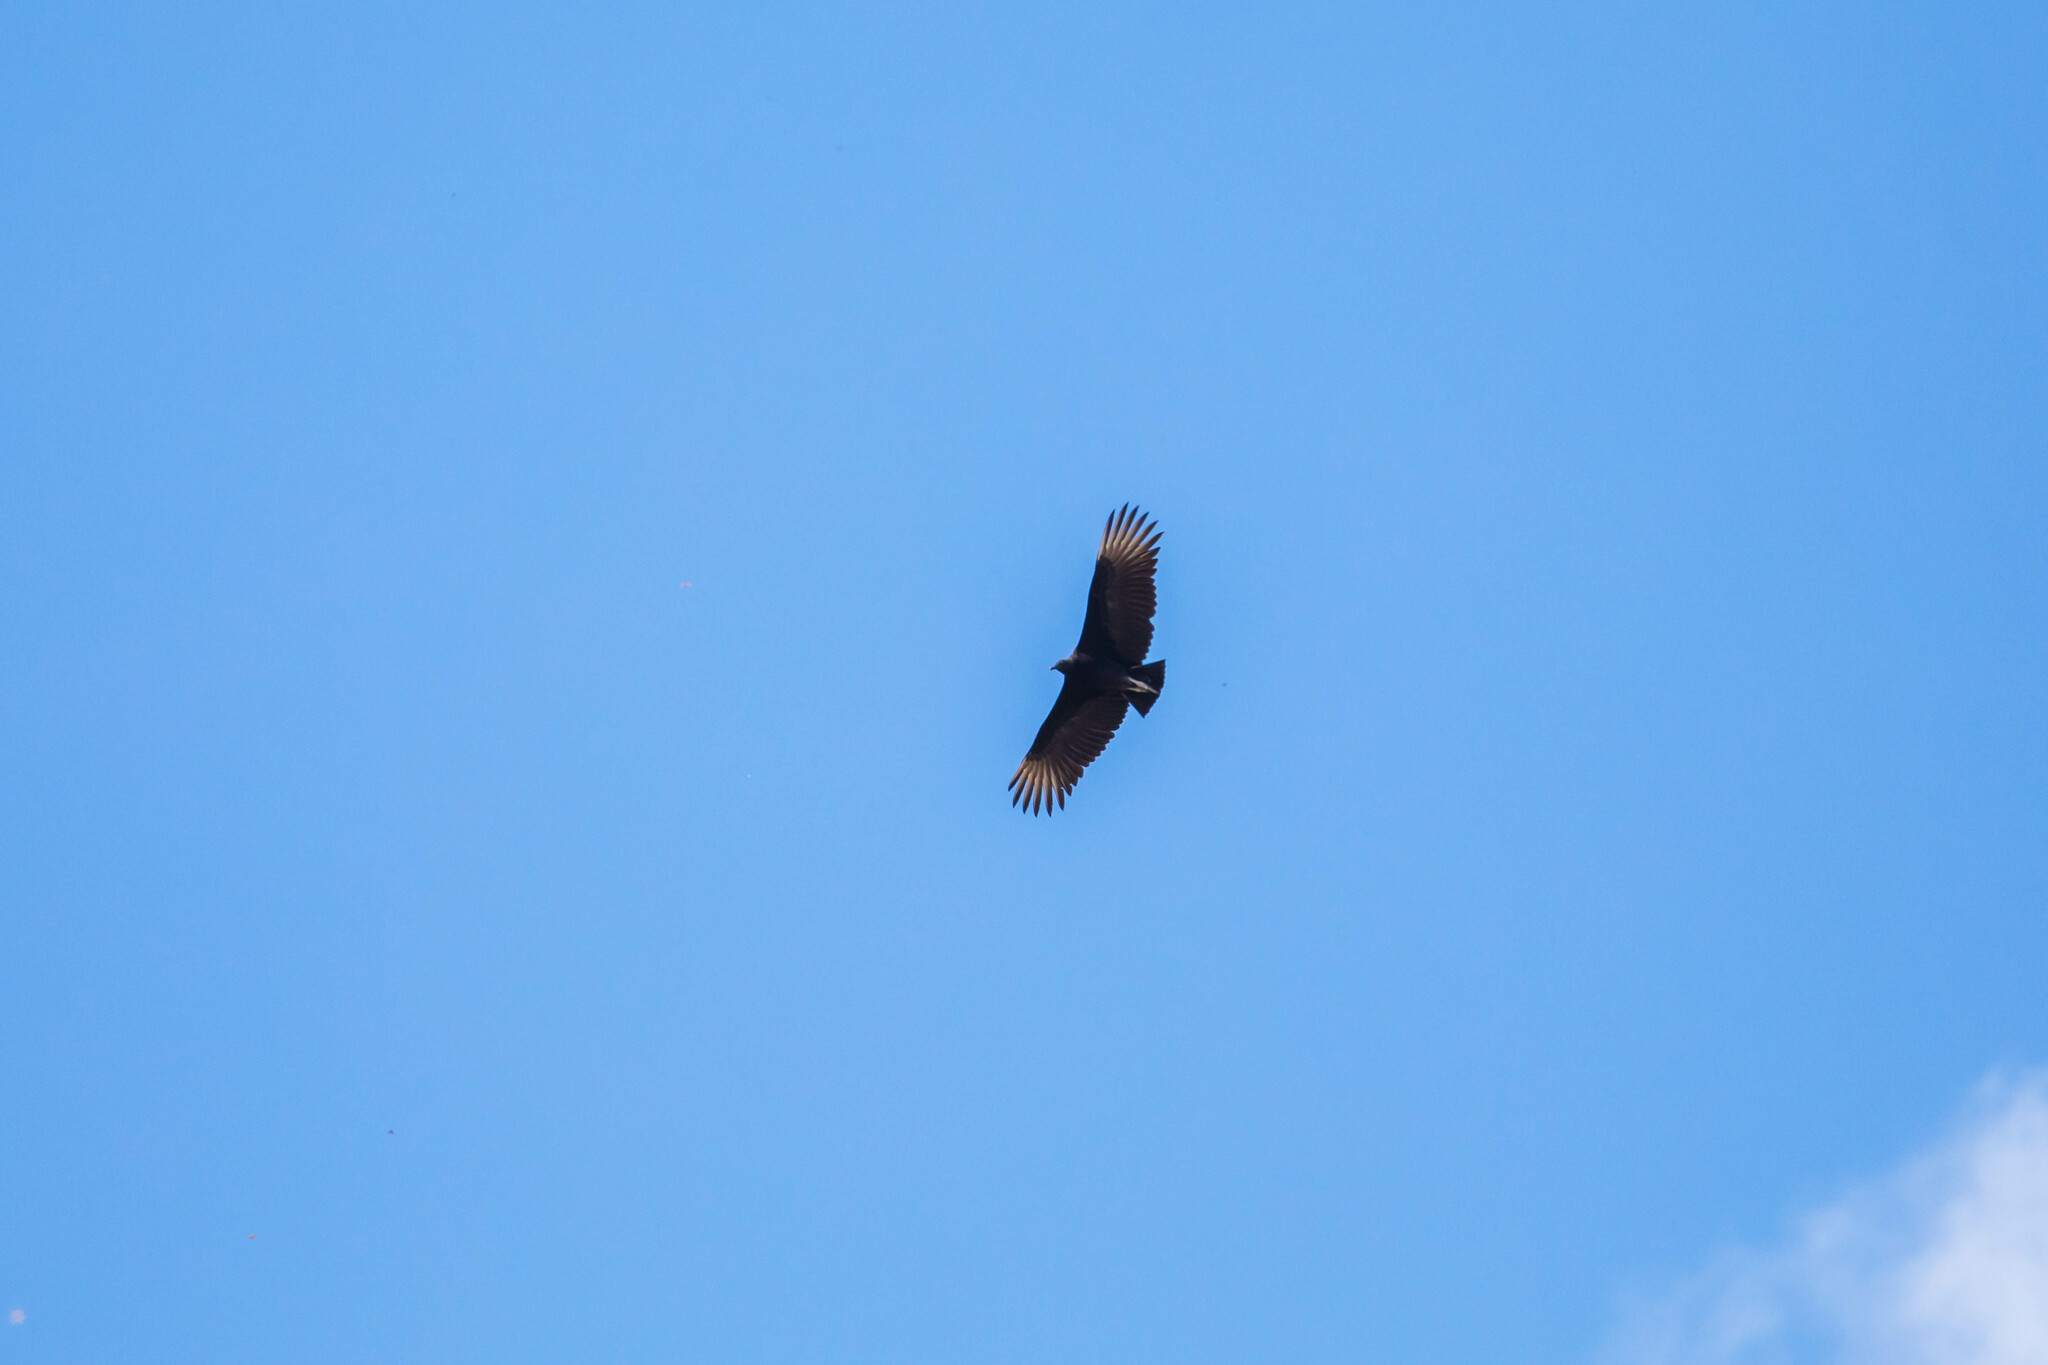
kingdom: Animalia
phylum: Chordata
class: Aves
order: Accipitriformes
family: Cathartidae
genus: Coragyps
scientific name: Coragyps atratus
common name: Black vulture
